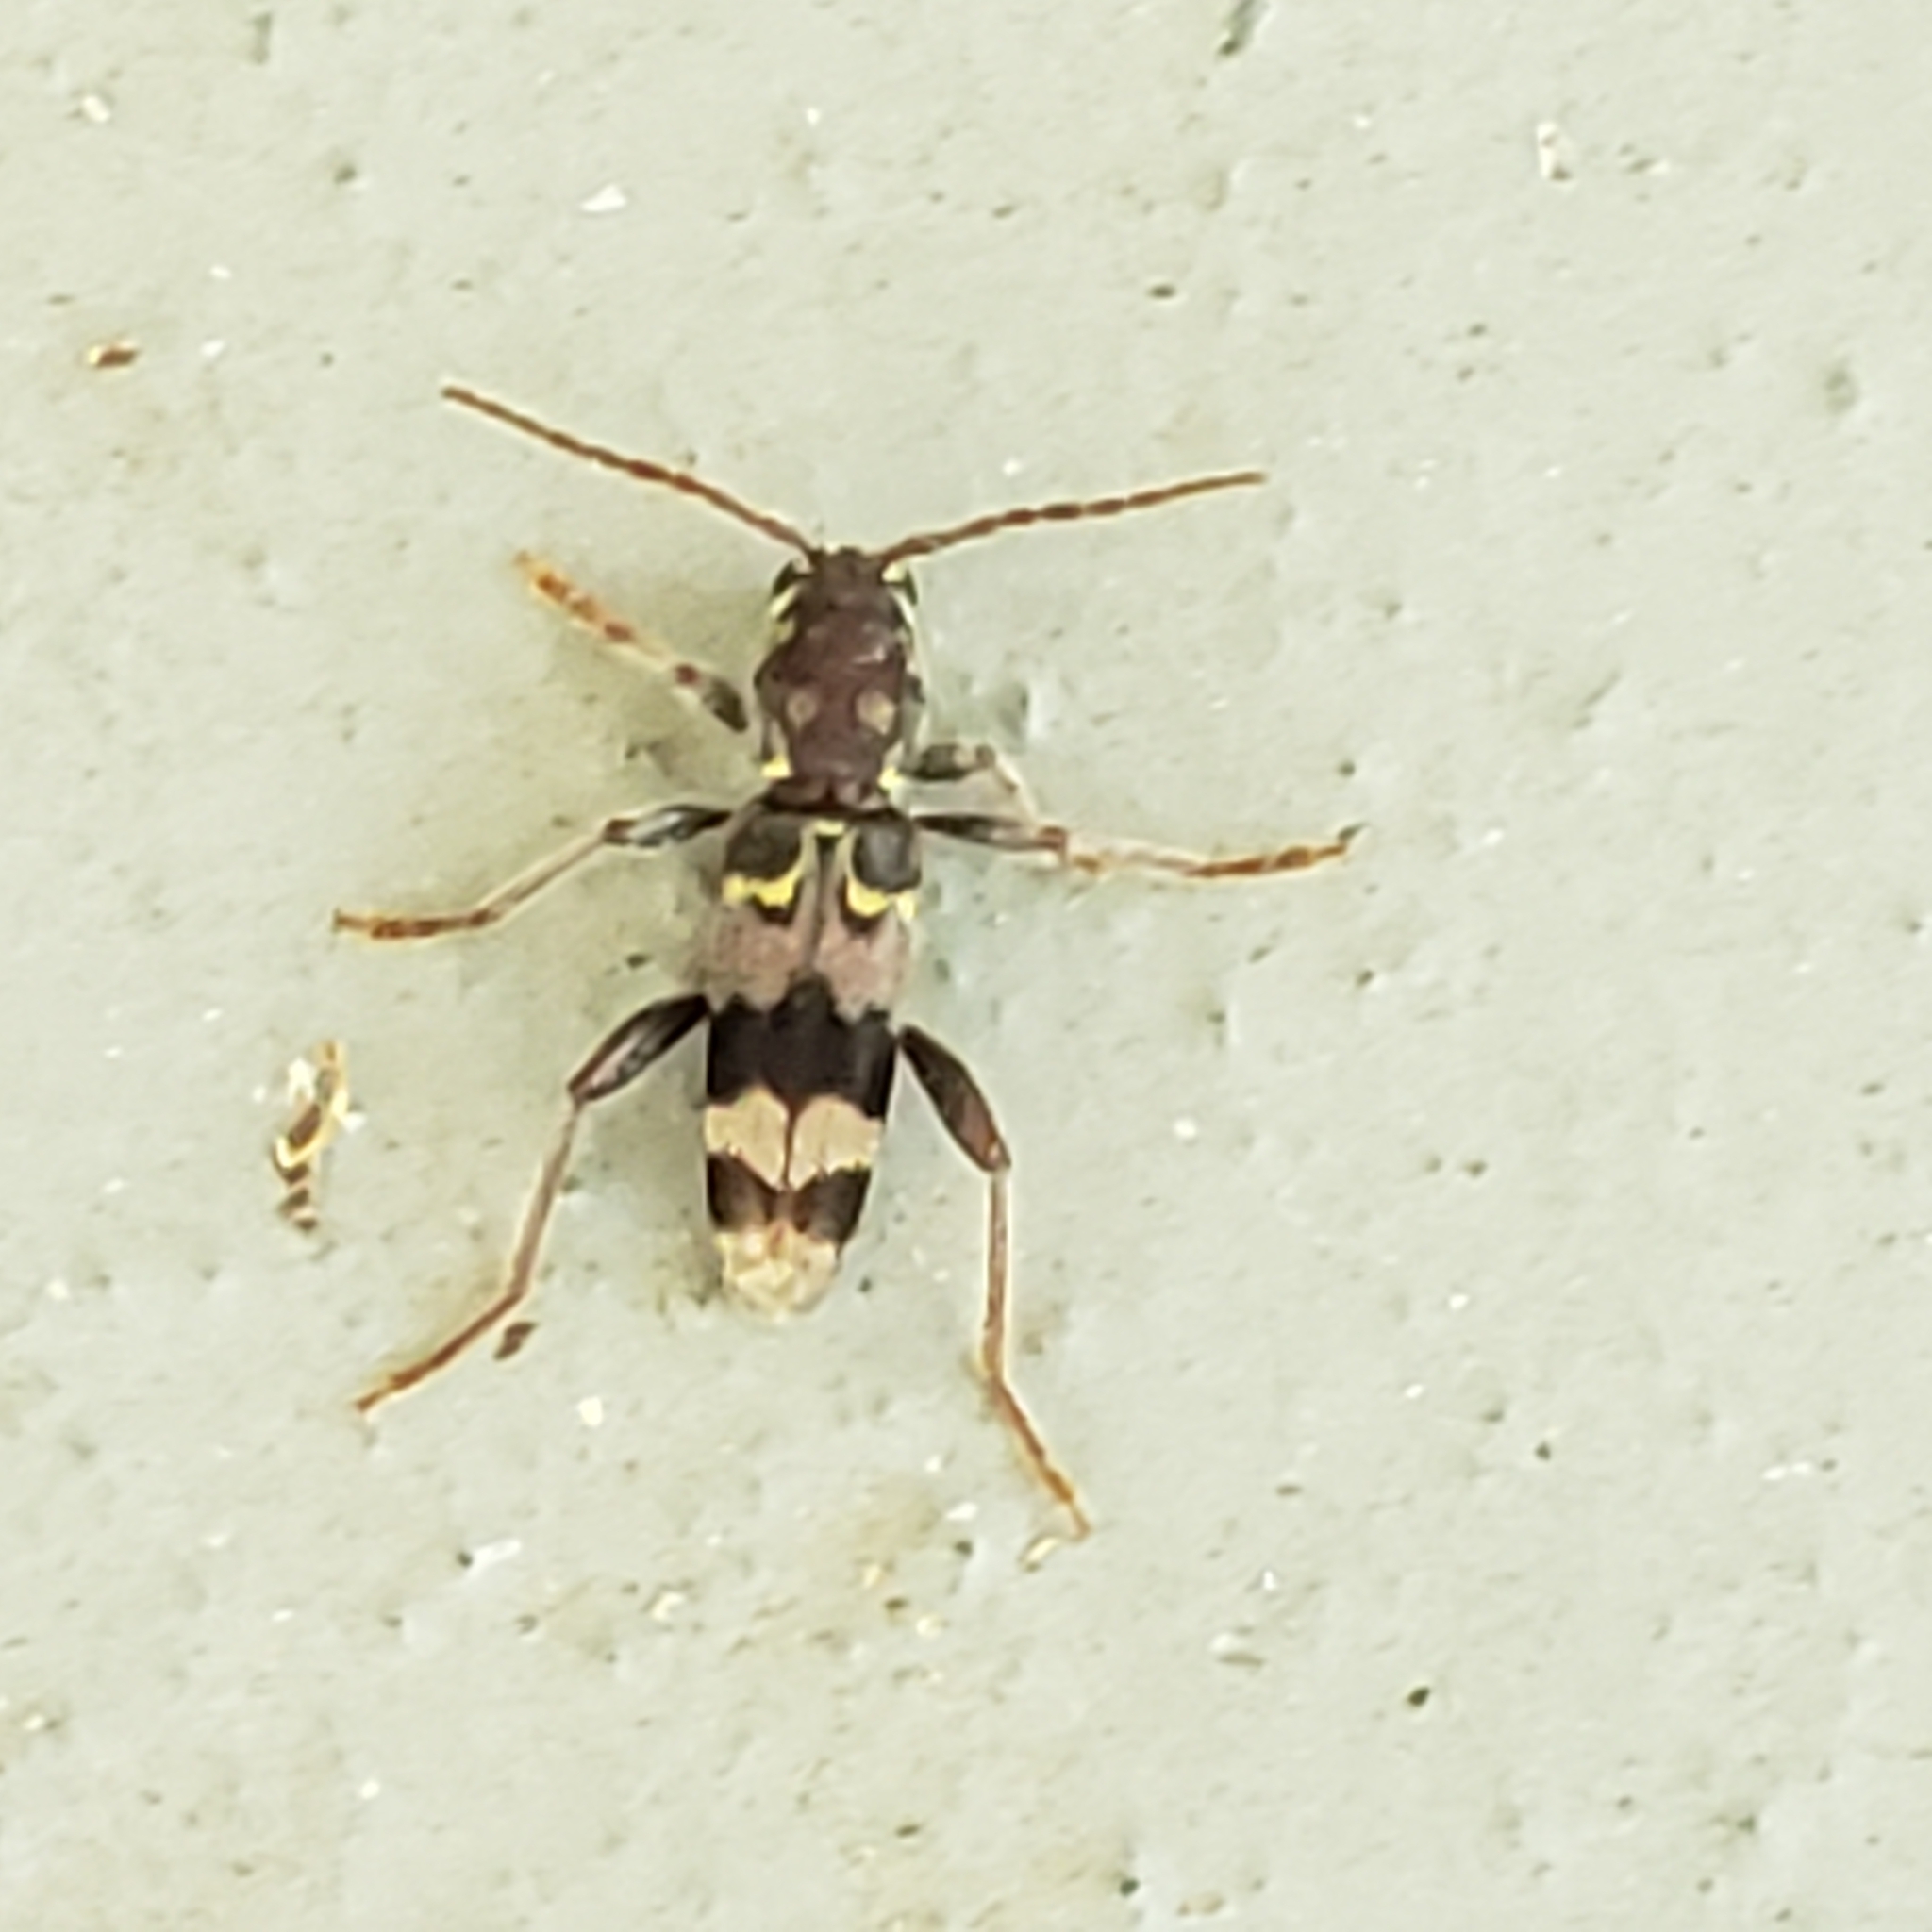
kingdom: Animalia
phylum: Arthropoda
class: Insecta
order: Coleoptera
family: Cerambycidae
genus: Xylotrechus
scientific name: Xylotrechus colonus
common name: Long-horned beetle
